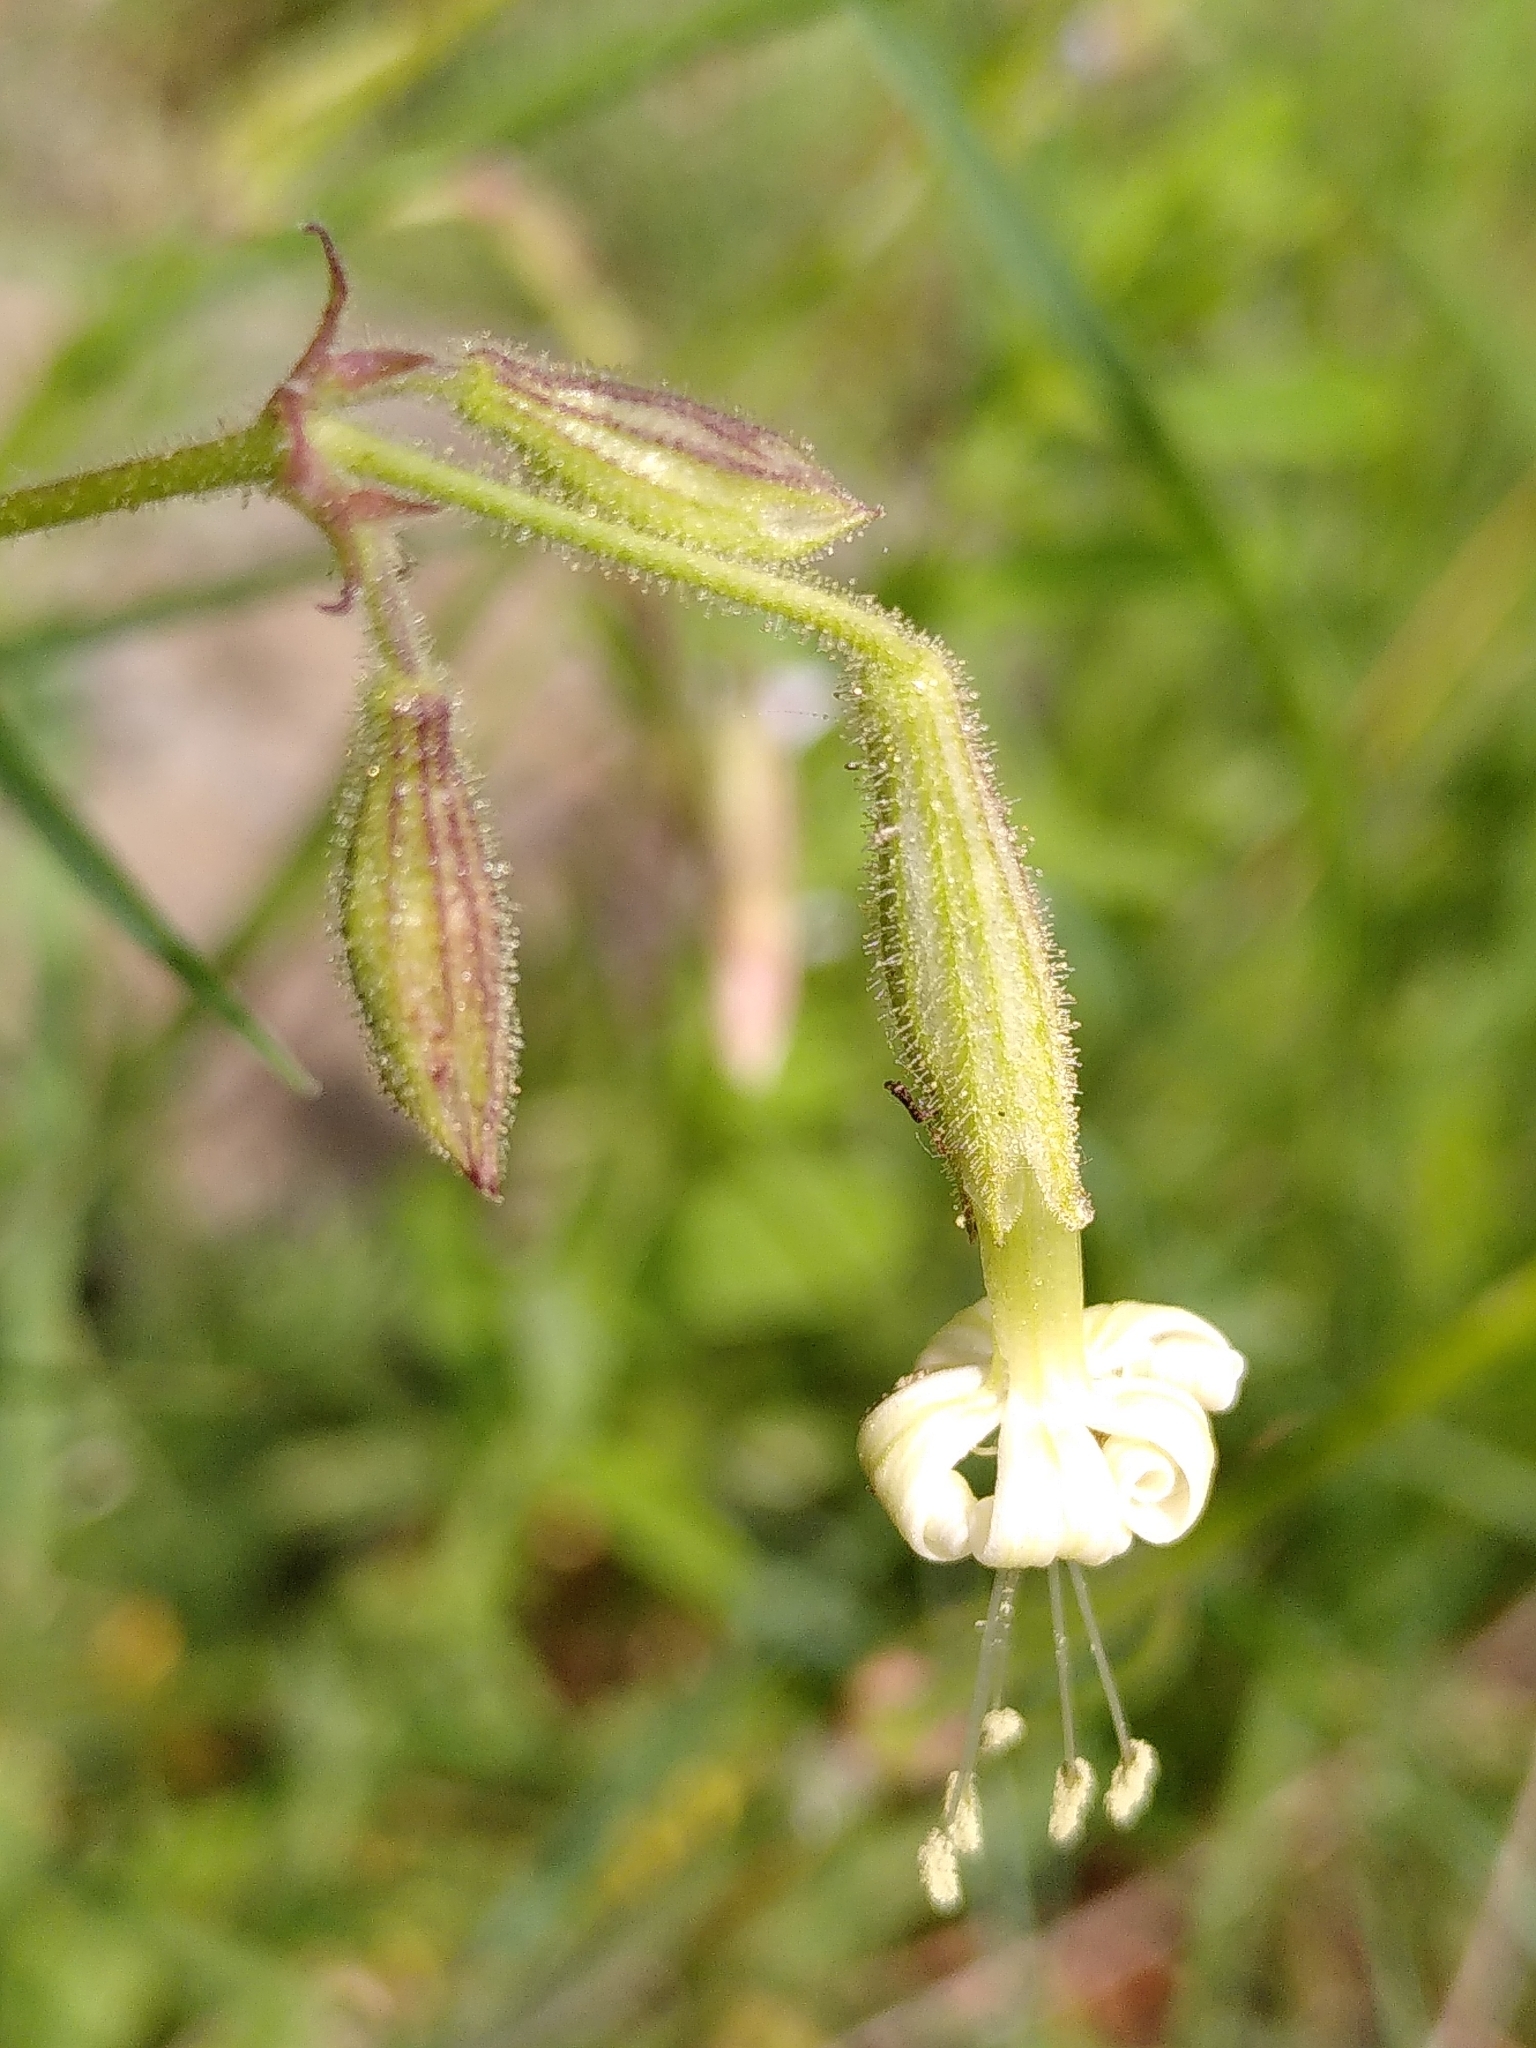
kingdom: Plantae
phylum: Tracheophyta
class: Magnoliopsida
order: Caryophyllales
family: Caryophyllaceae
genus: Silene
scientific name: Silene nutans
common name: Nottingham catchfly
